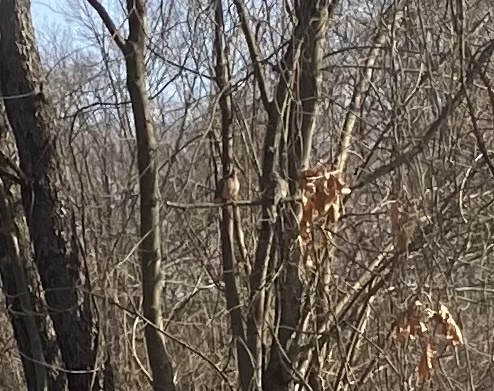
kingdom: Animalia
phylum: Chordata
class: Aves
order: Columbiformes
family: Columbidae
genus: Zenaida
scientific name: Zenaida macroura
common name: Mourning dove
